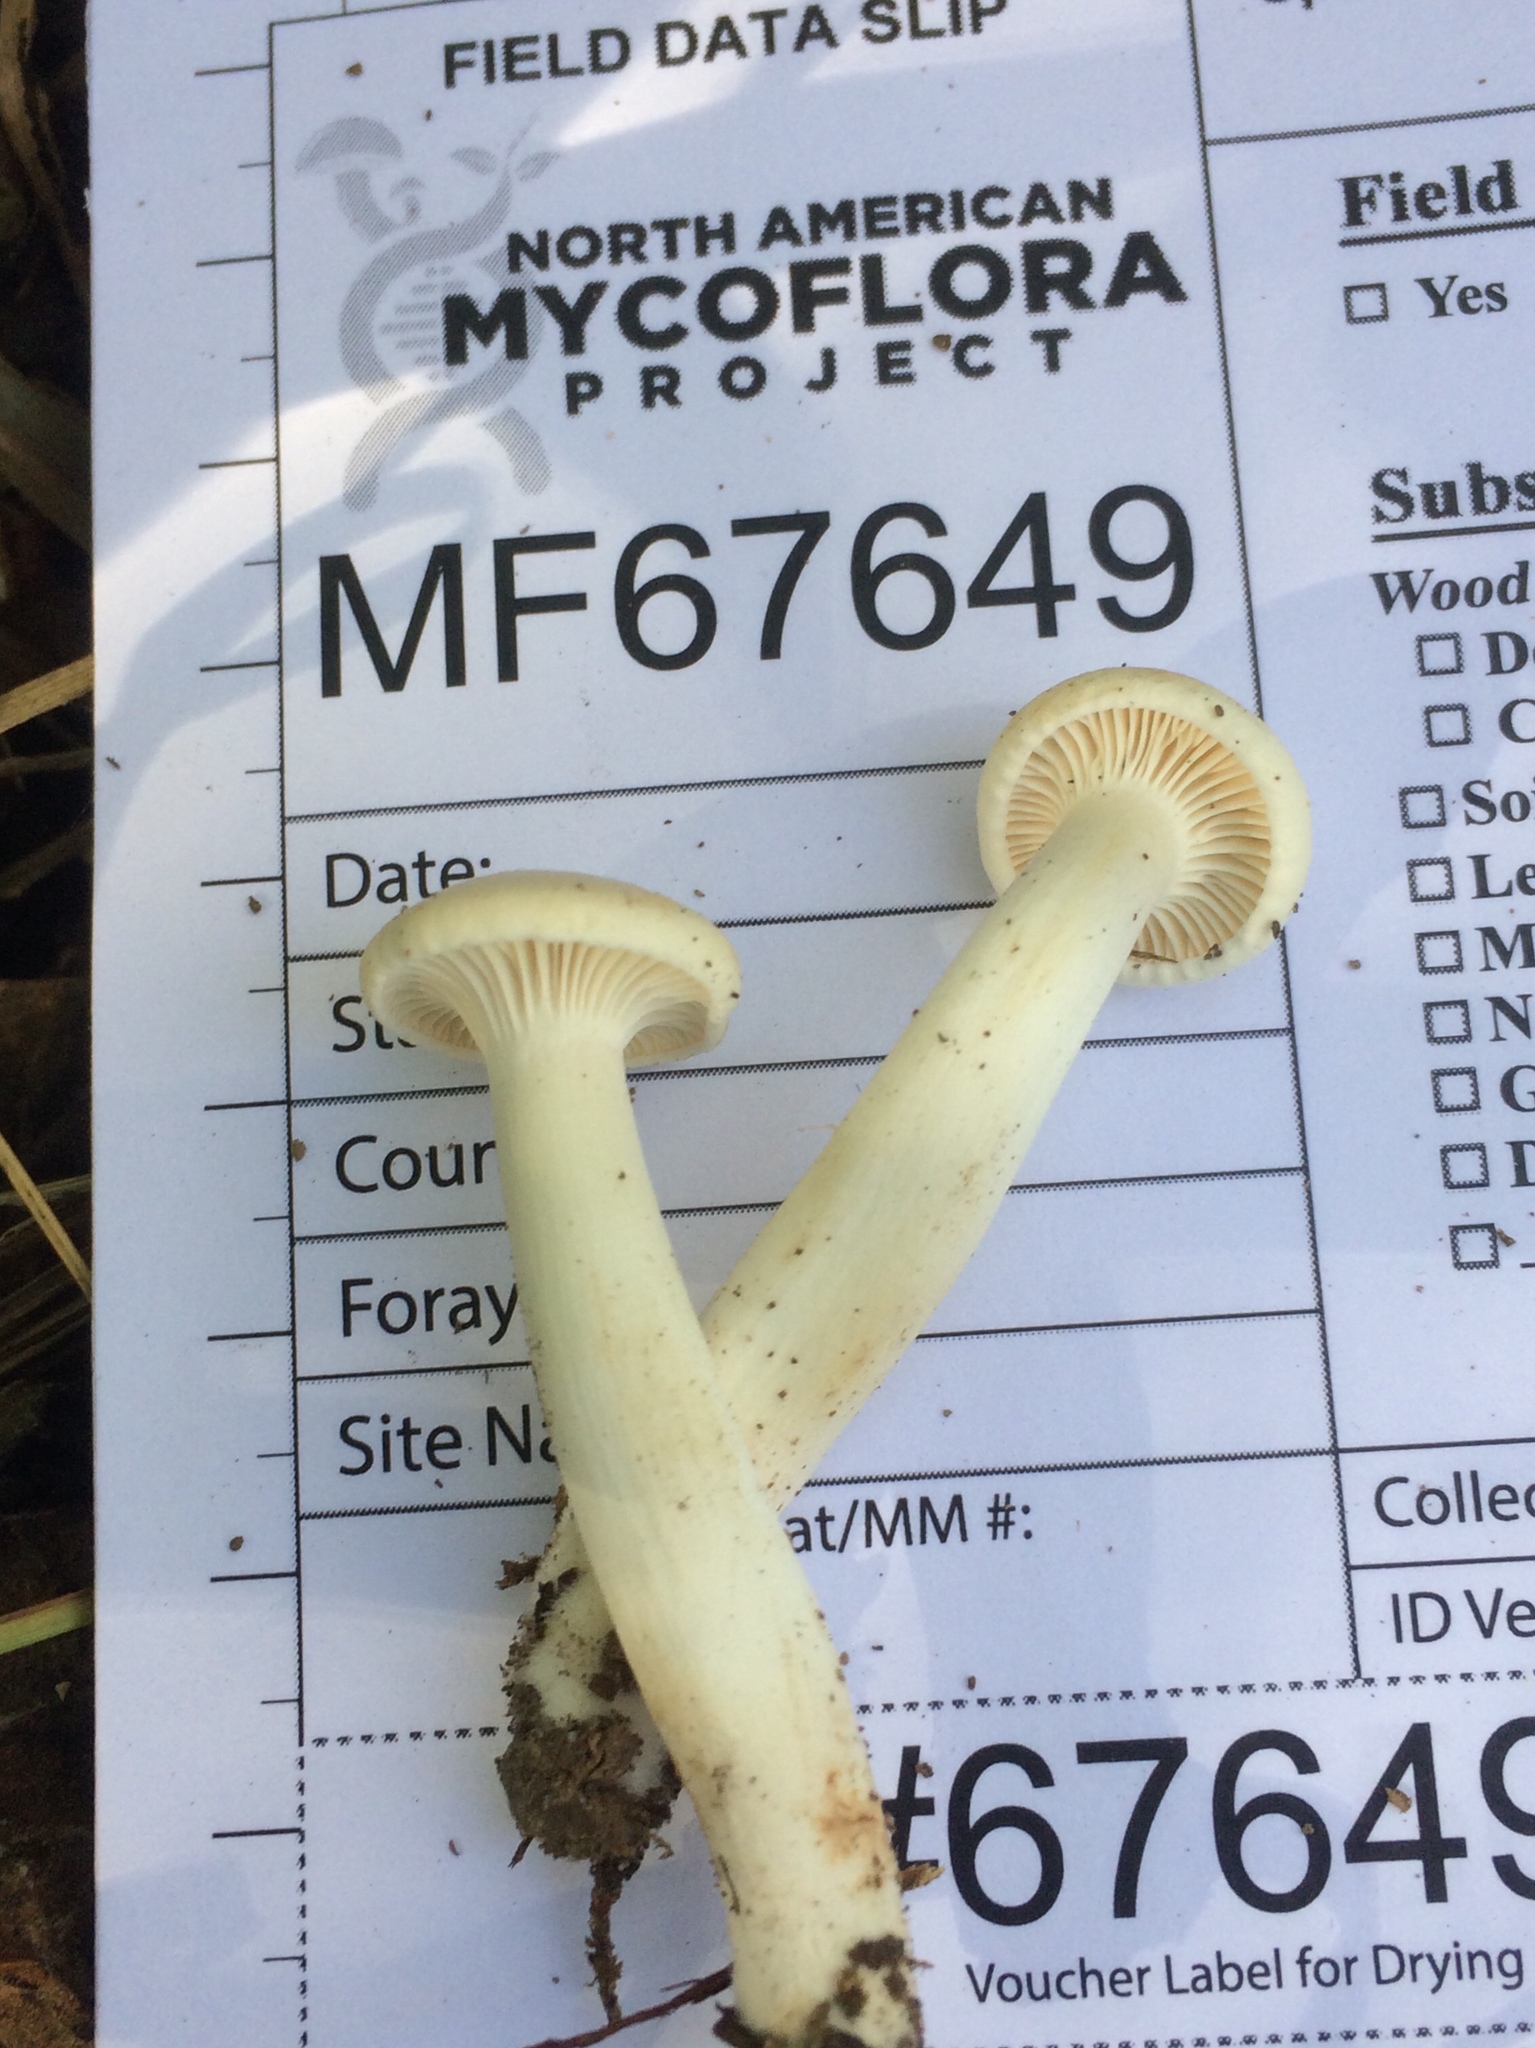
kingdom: Fungi
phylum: Basidiomycota
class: Agaricomycetes
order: Agaricales
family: Hygrophoraceae
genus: Hygrocybe
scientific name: Hygrocybe angustifolia
